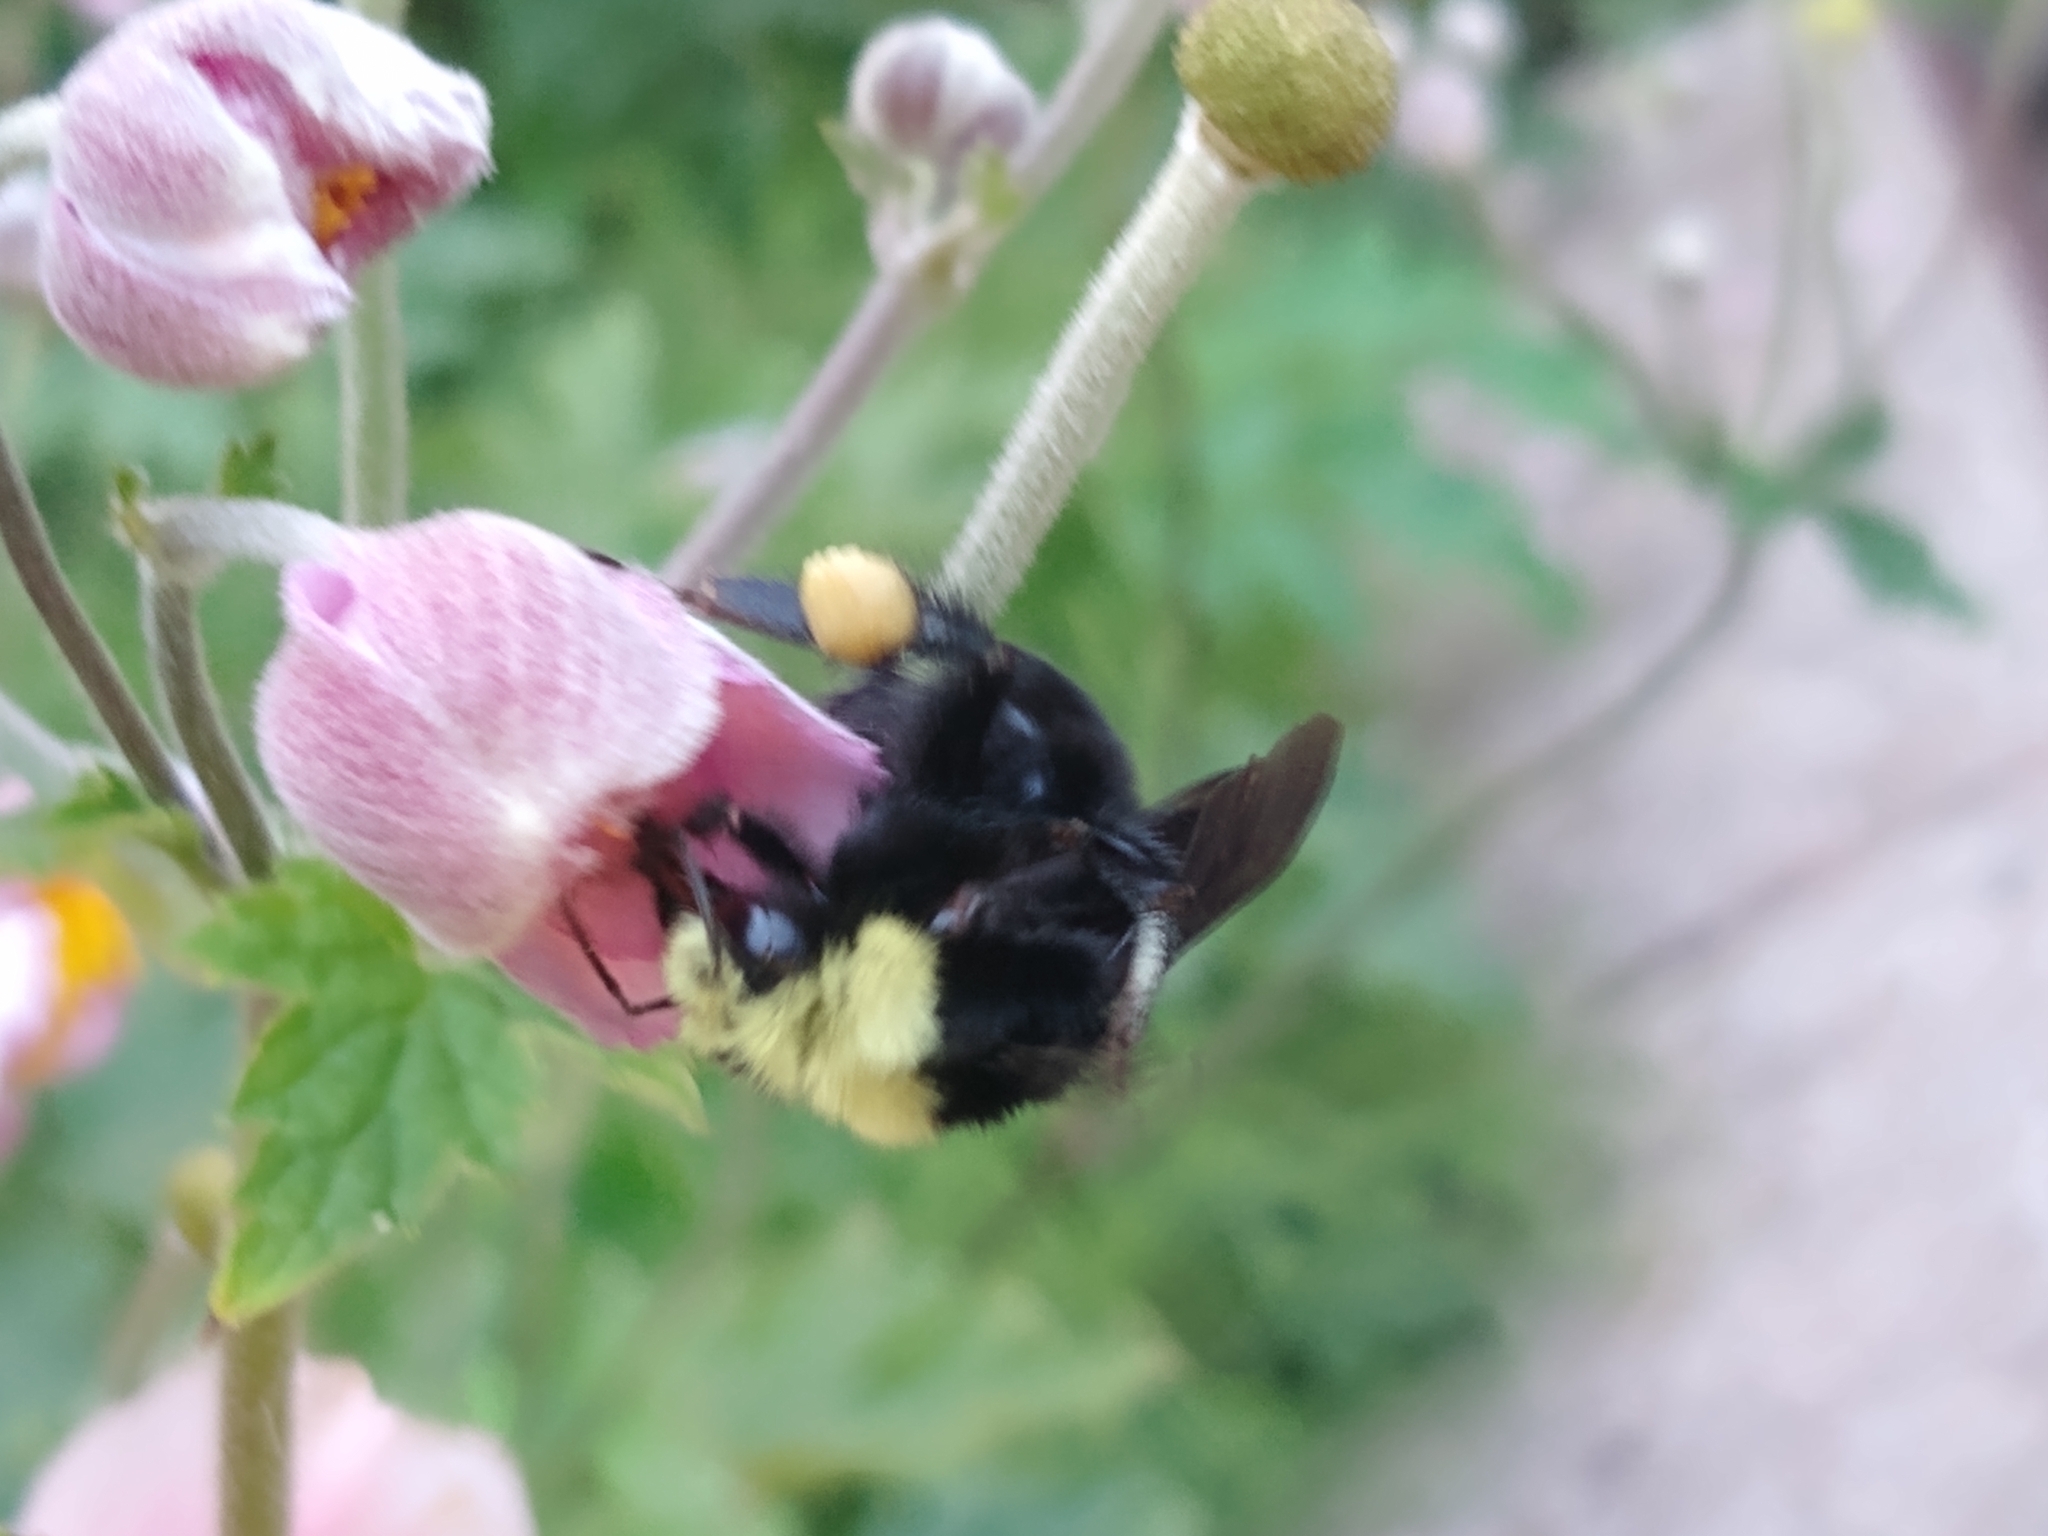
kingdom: Animalia
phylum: Arthropoda
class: Insecta
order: Hymenoptera
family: Apidae
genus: Bombus
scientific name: Bombus vosnesenskii
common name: Vosnesensky bumble bee
